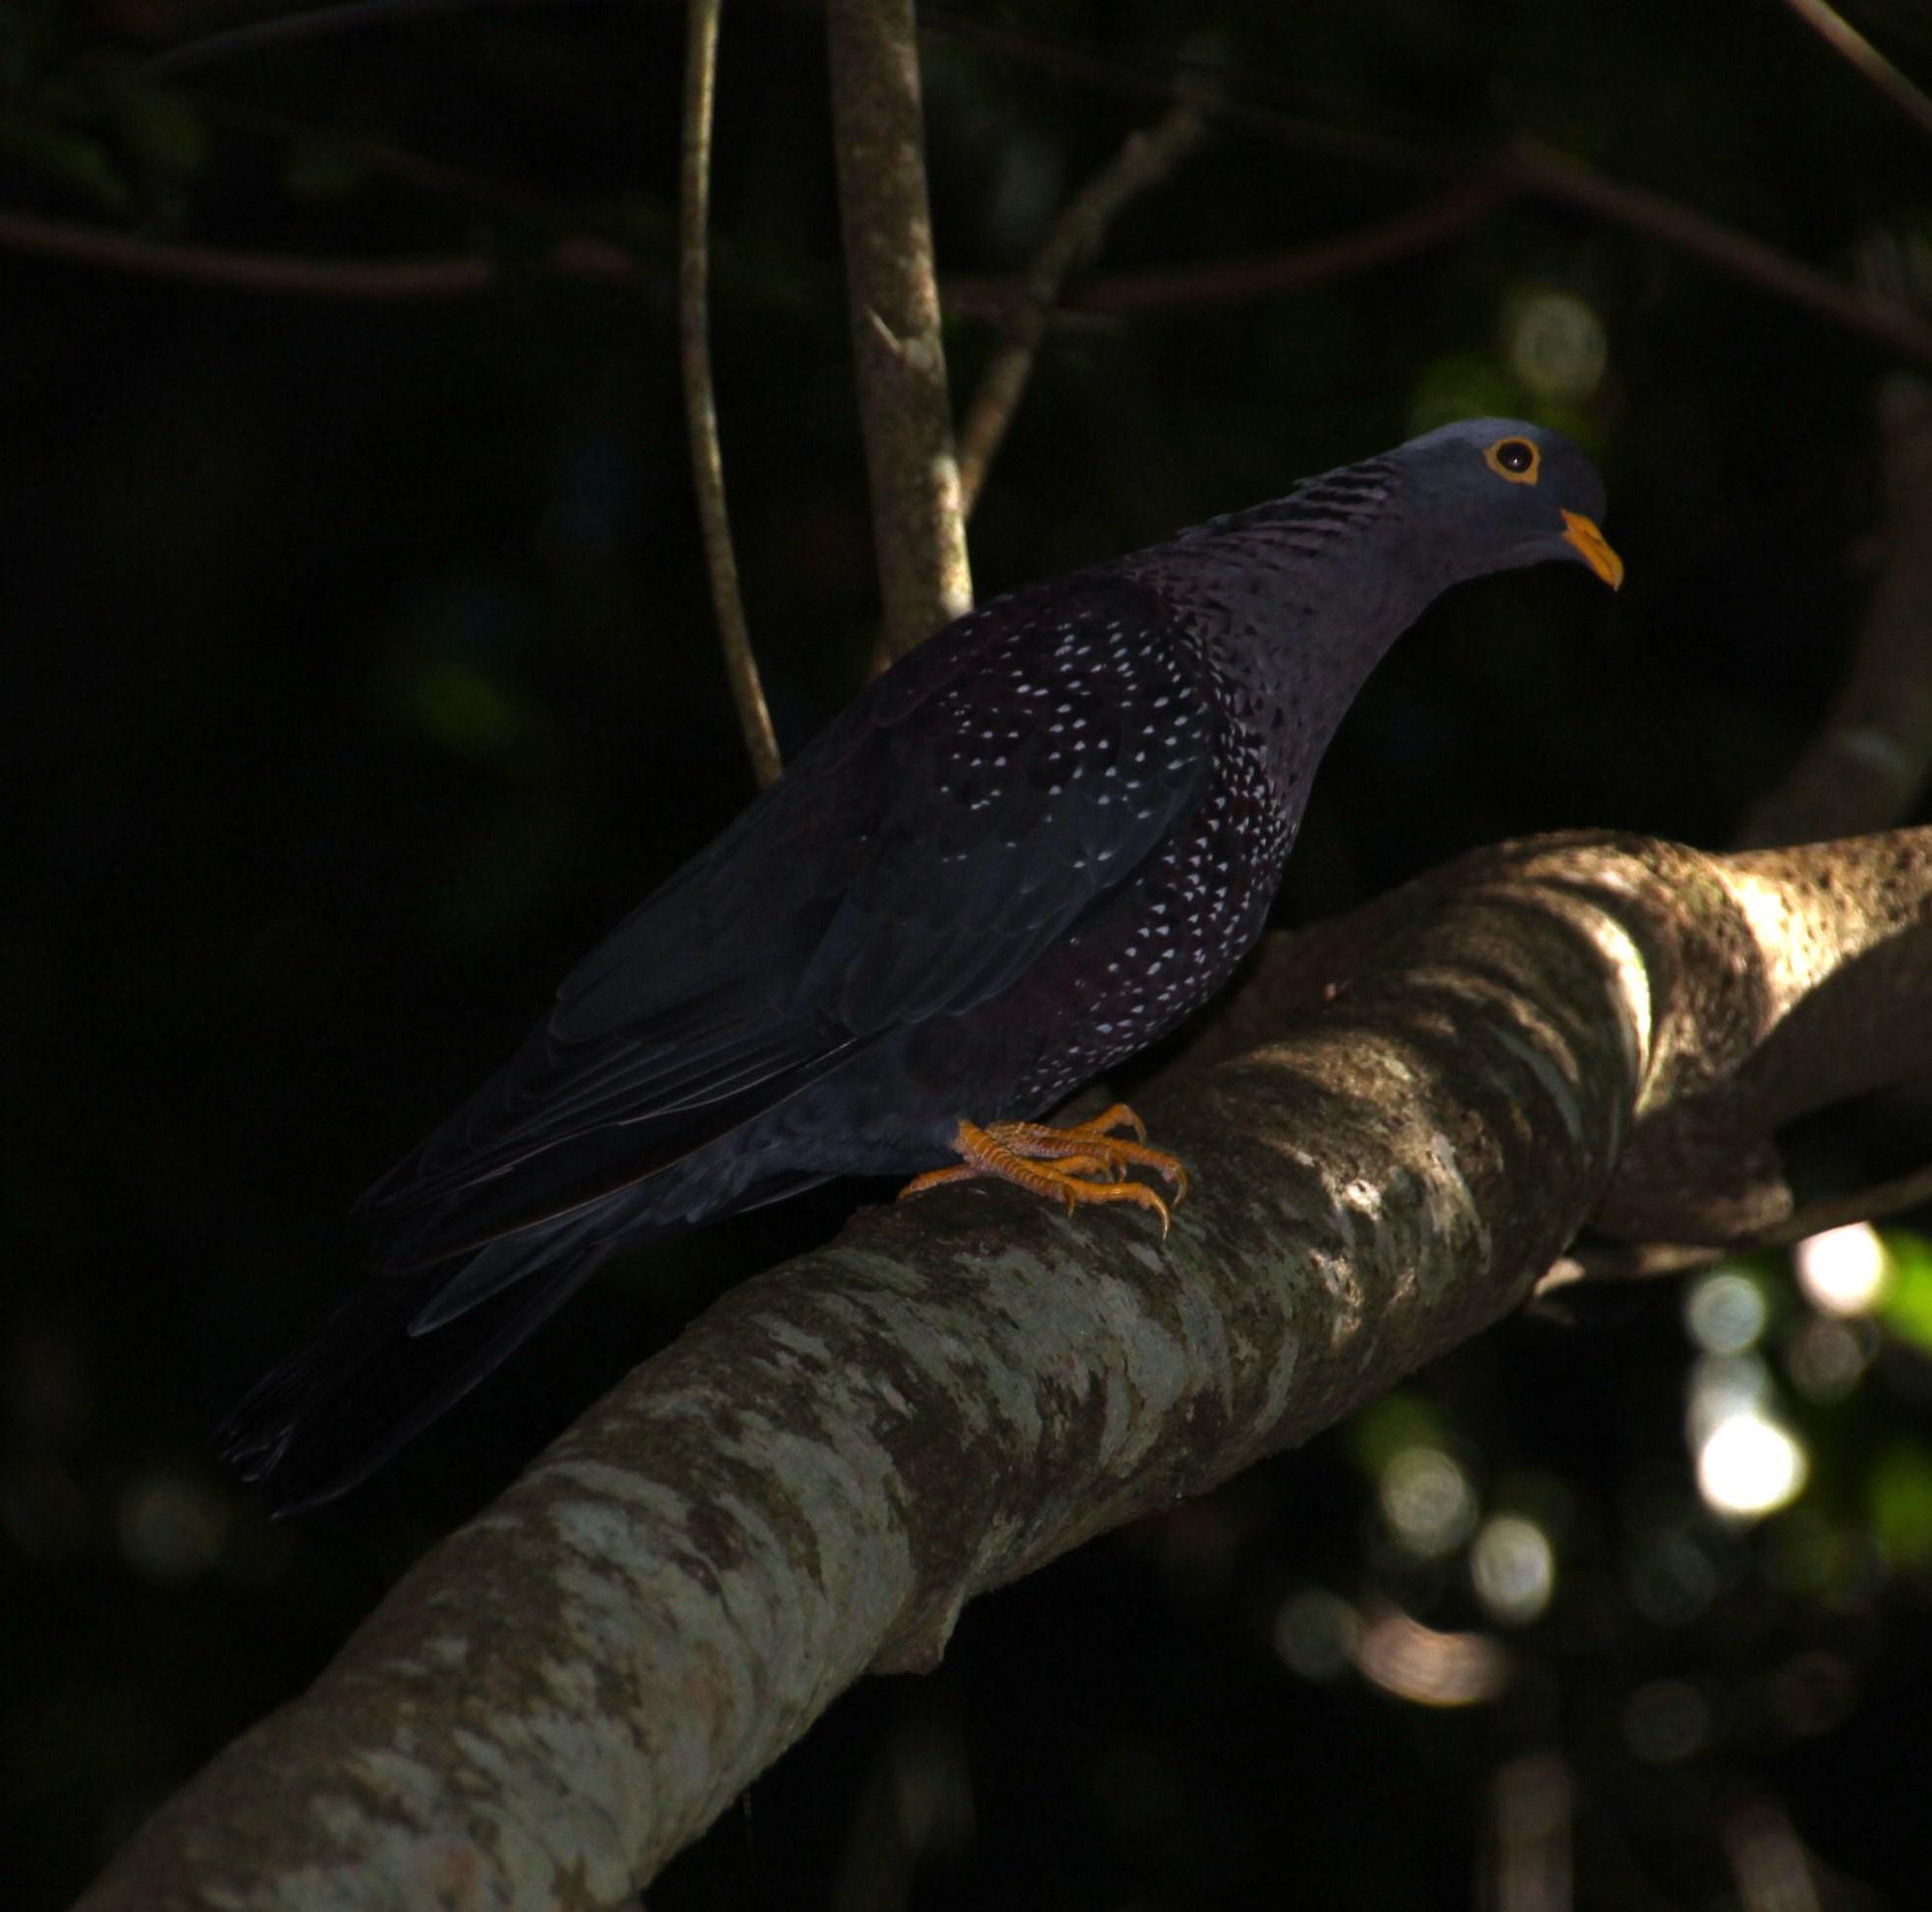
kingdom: Animalia
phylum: Chordata
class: Aves
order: Columbiformes
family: Columbidae
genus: Columba
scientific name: Columba arquatrix
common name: African olive pigeon
